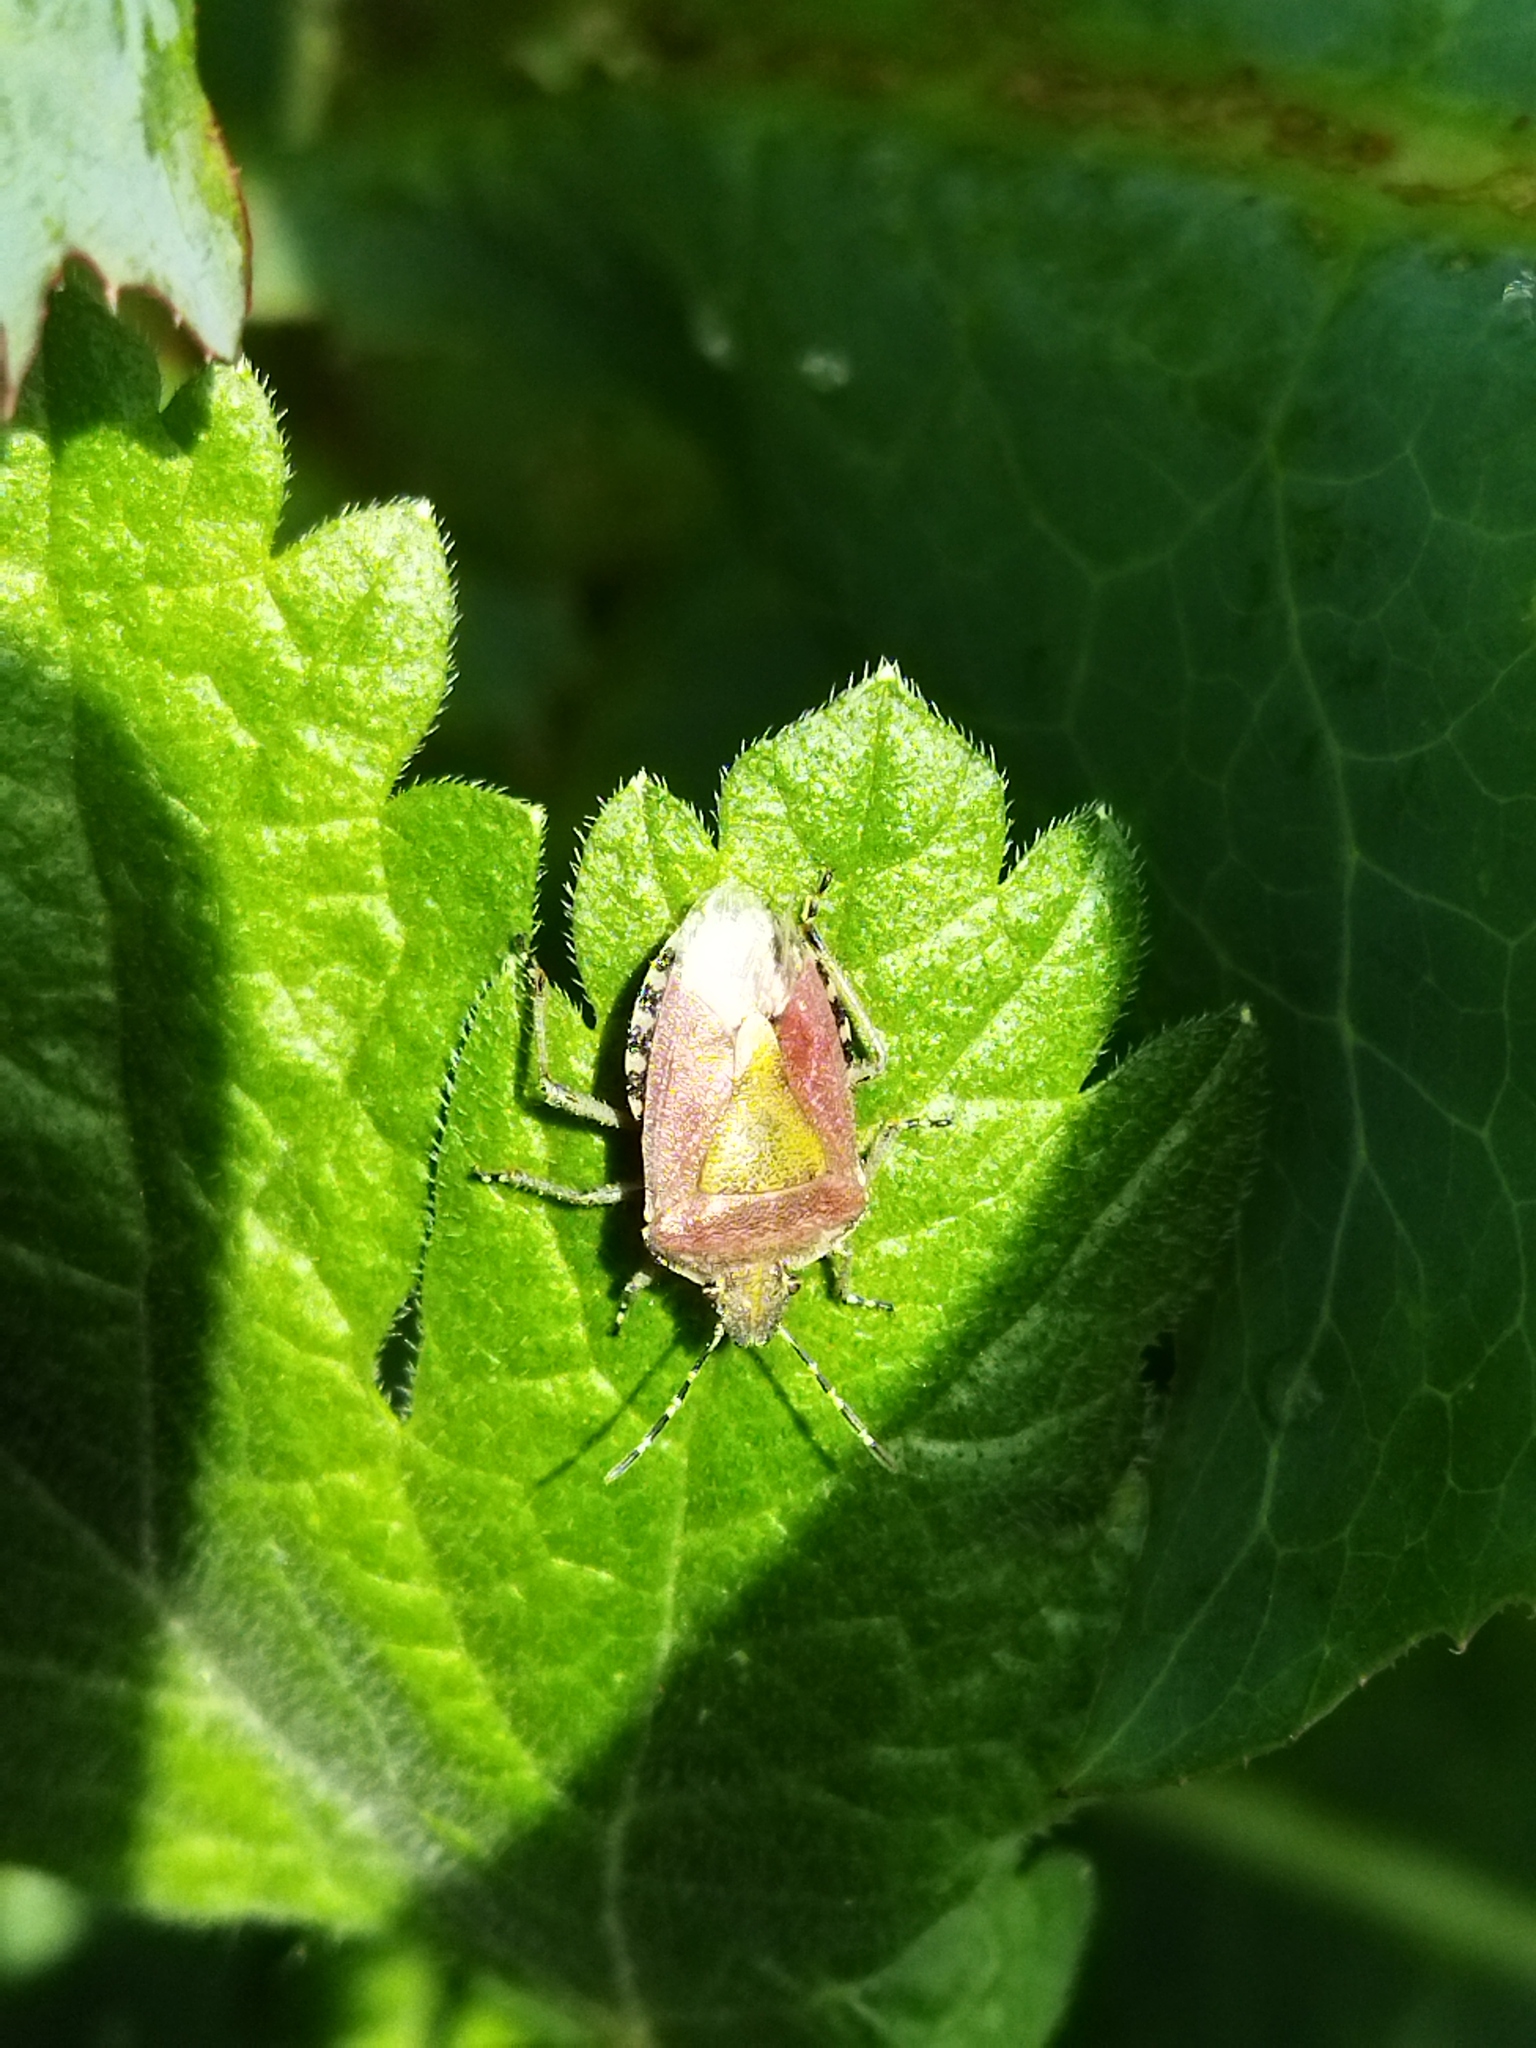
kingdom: Animalia
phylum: Arthropoda
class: Insecta
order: Hemiptera
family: Pentatomidae
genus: Dolycoris
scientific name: Dolycoris baccarum
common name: Sloe bug
